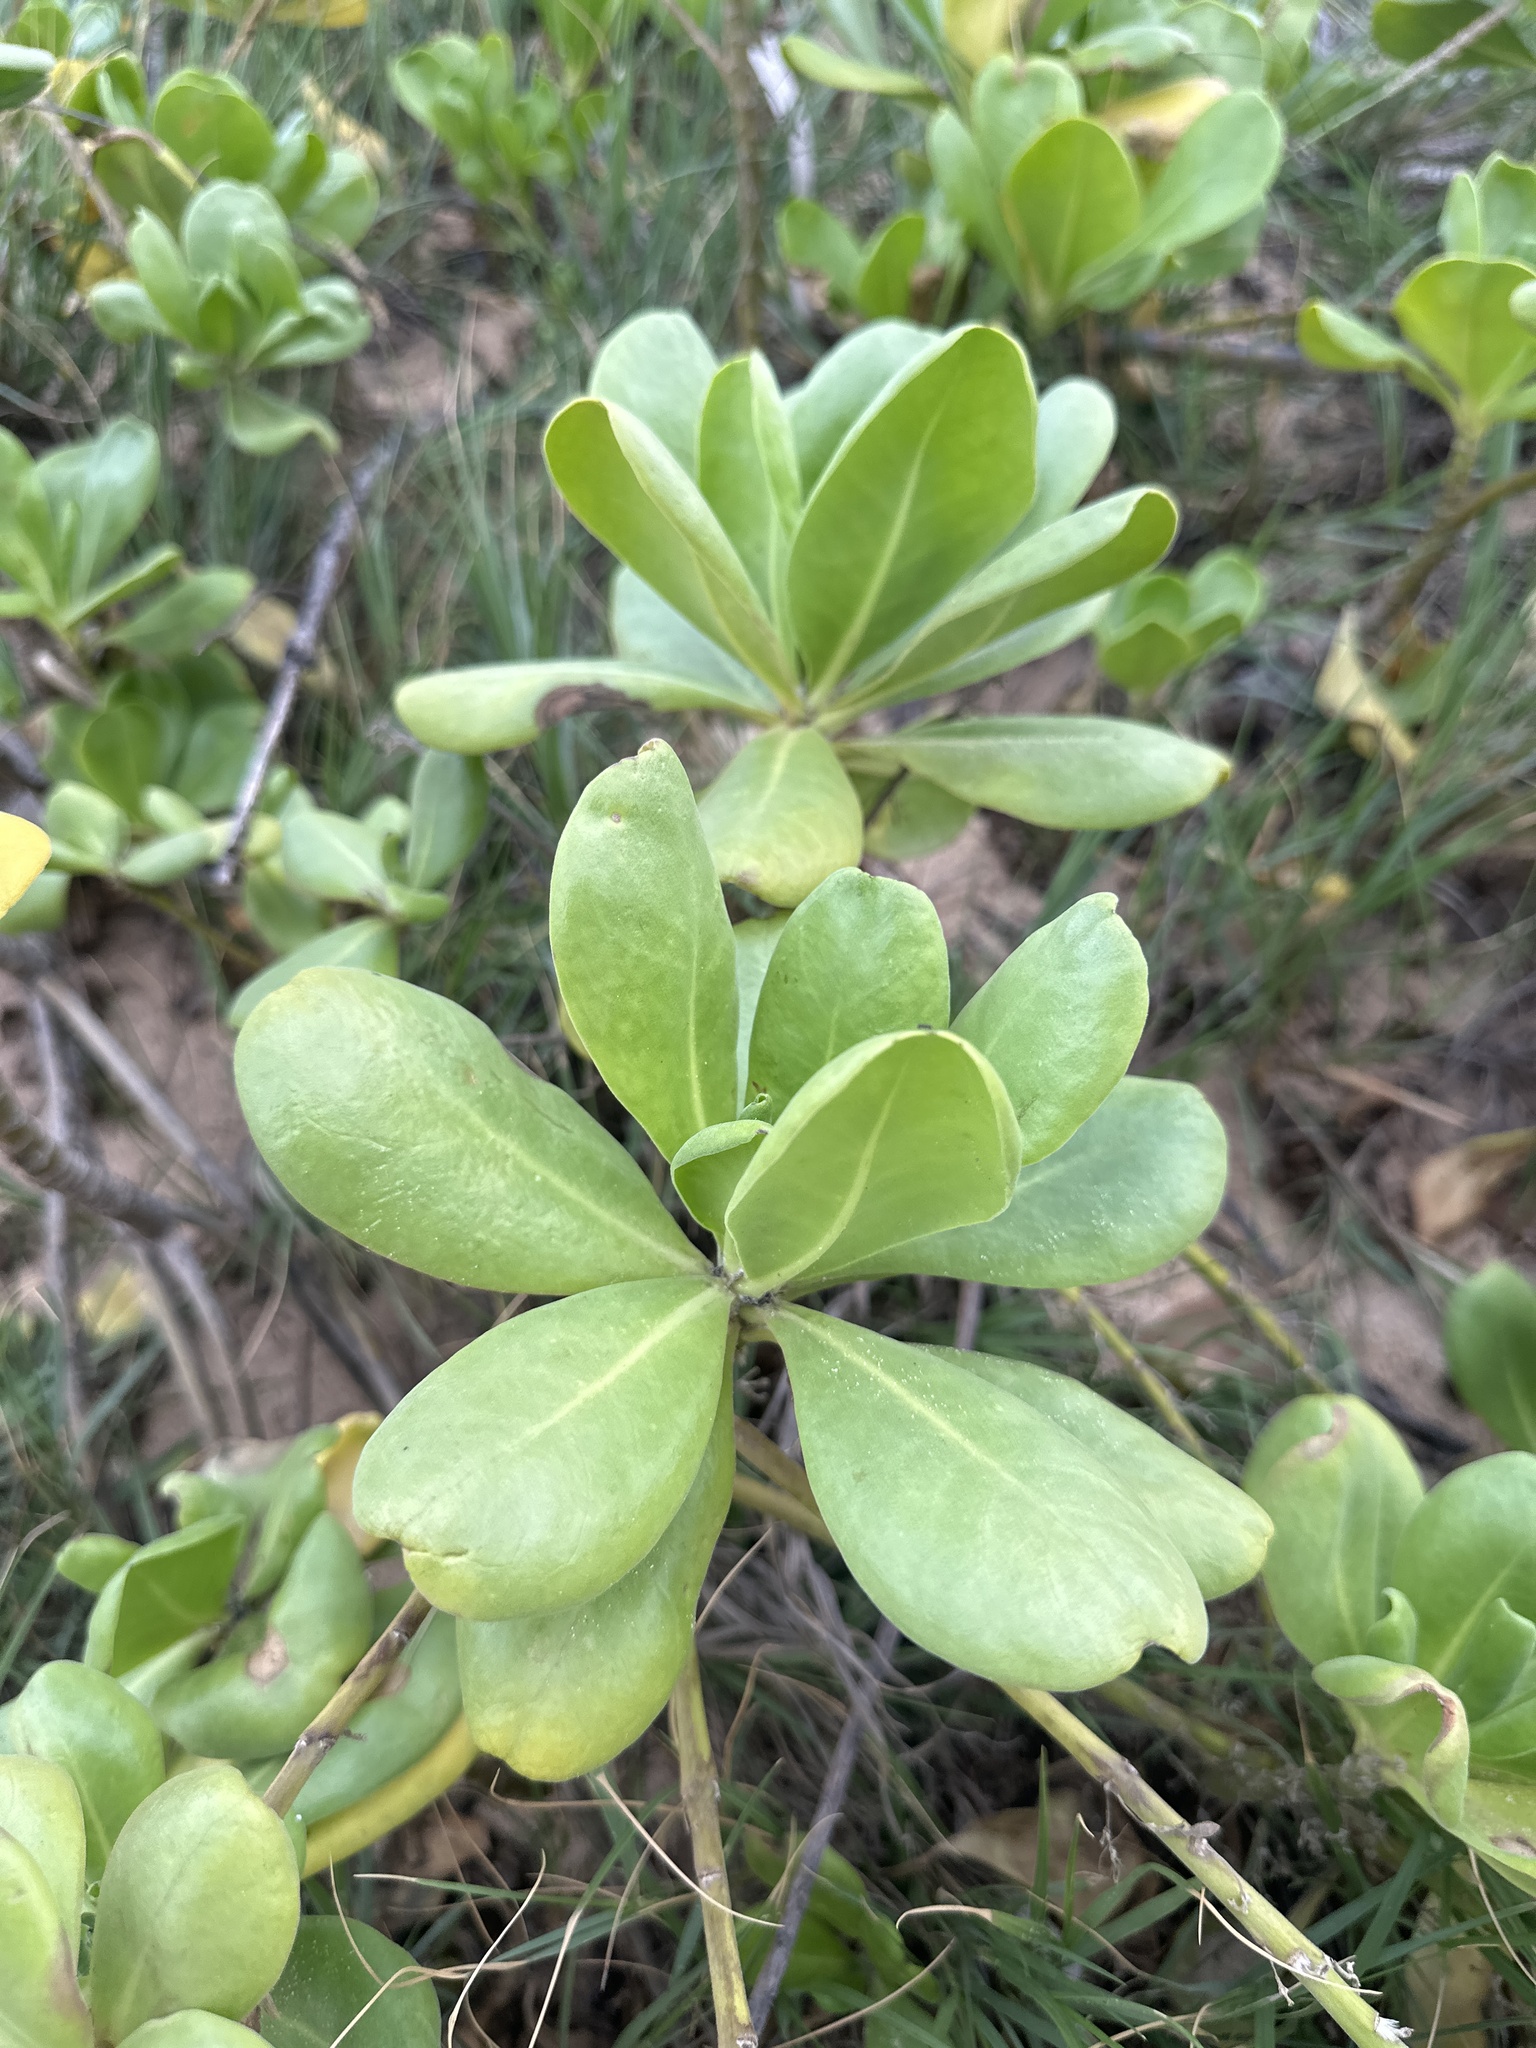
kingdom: Plantae
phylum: Tracheophyta
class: Magnoliopsida
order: Asterales
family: Goodeniaceae
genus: Scaevola
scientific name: Scaevola taccada
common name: Sea lettucetree
